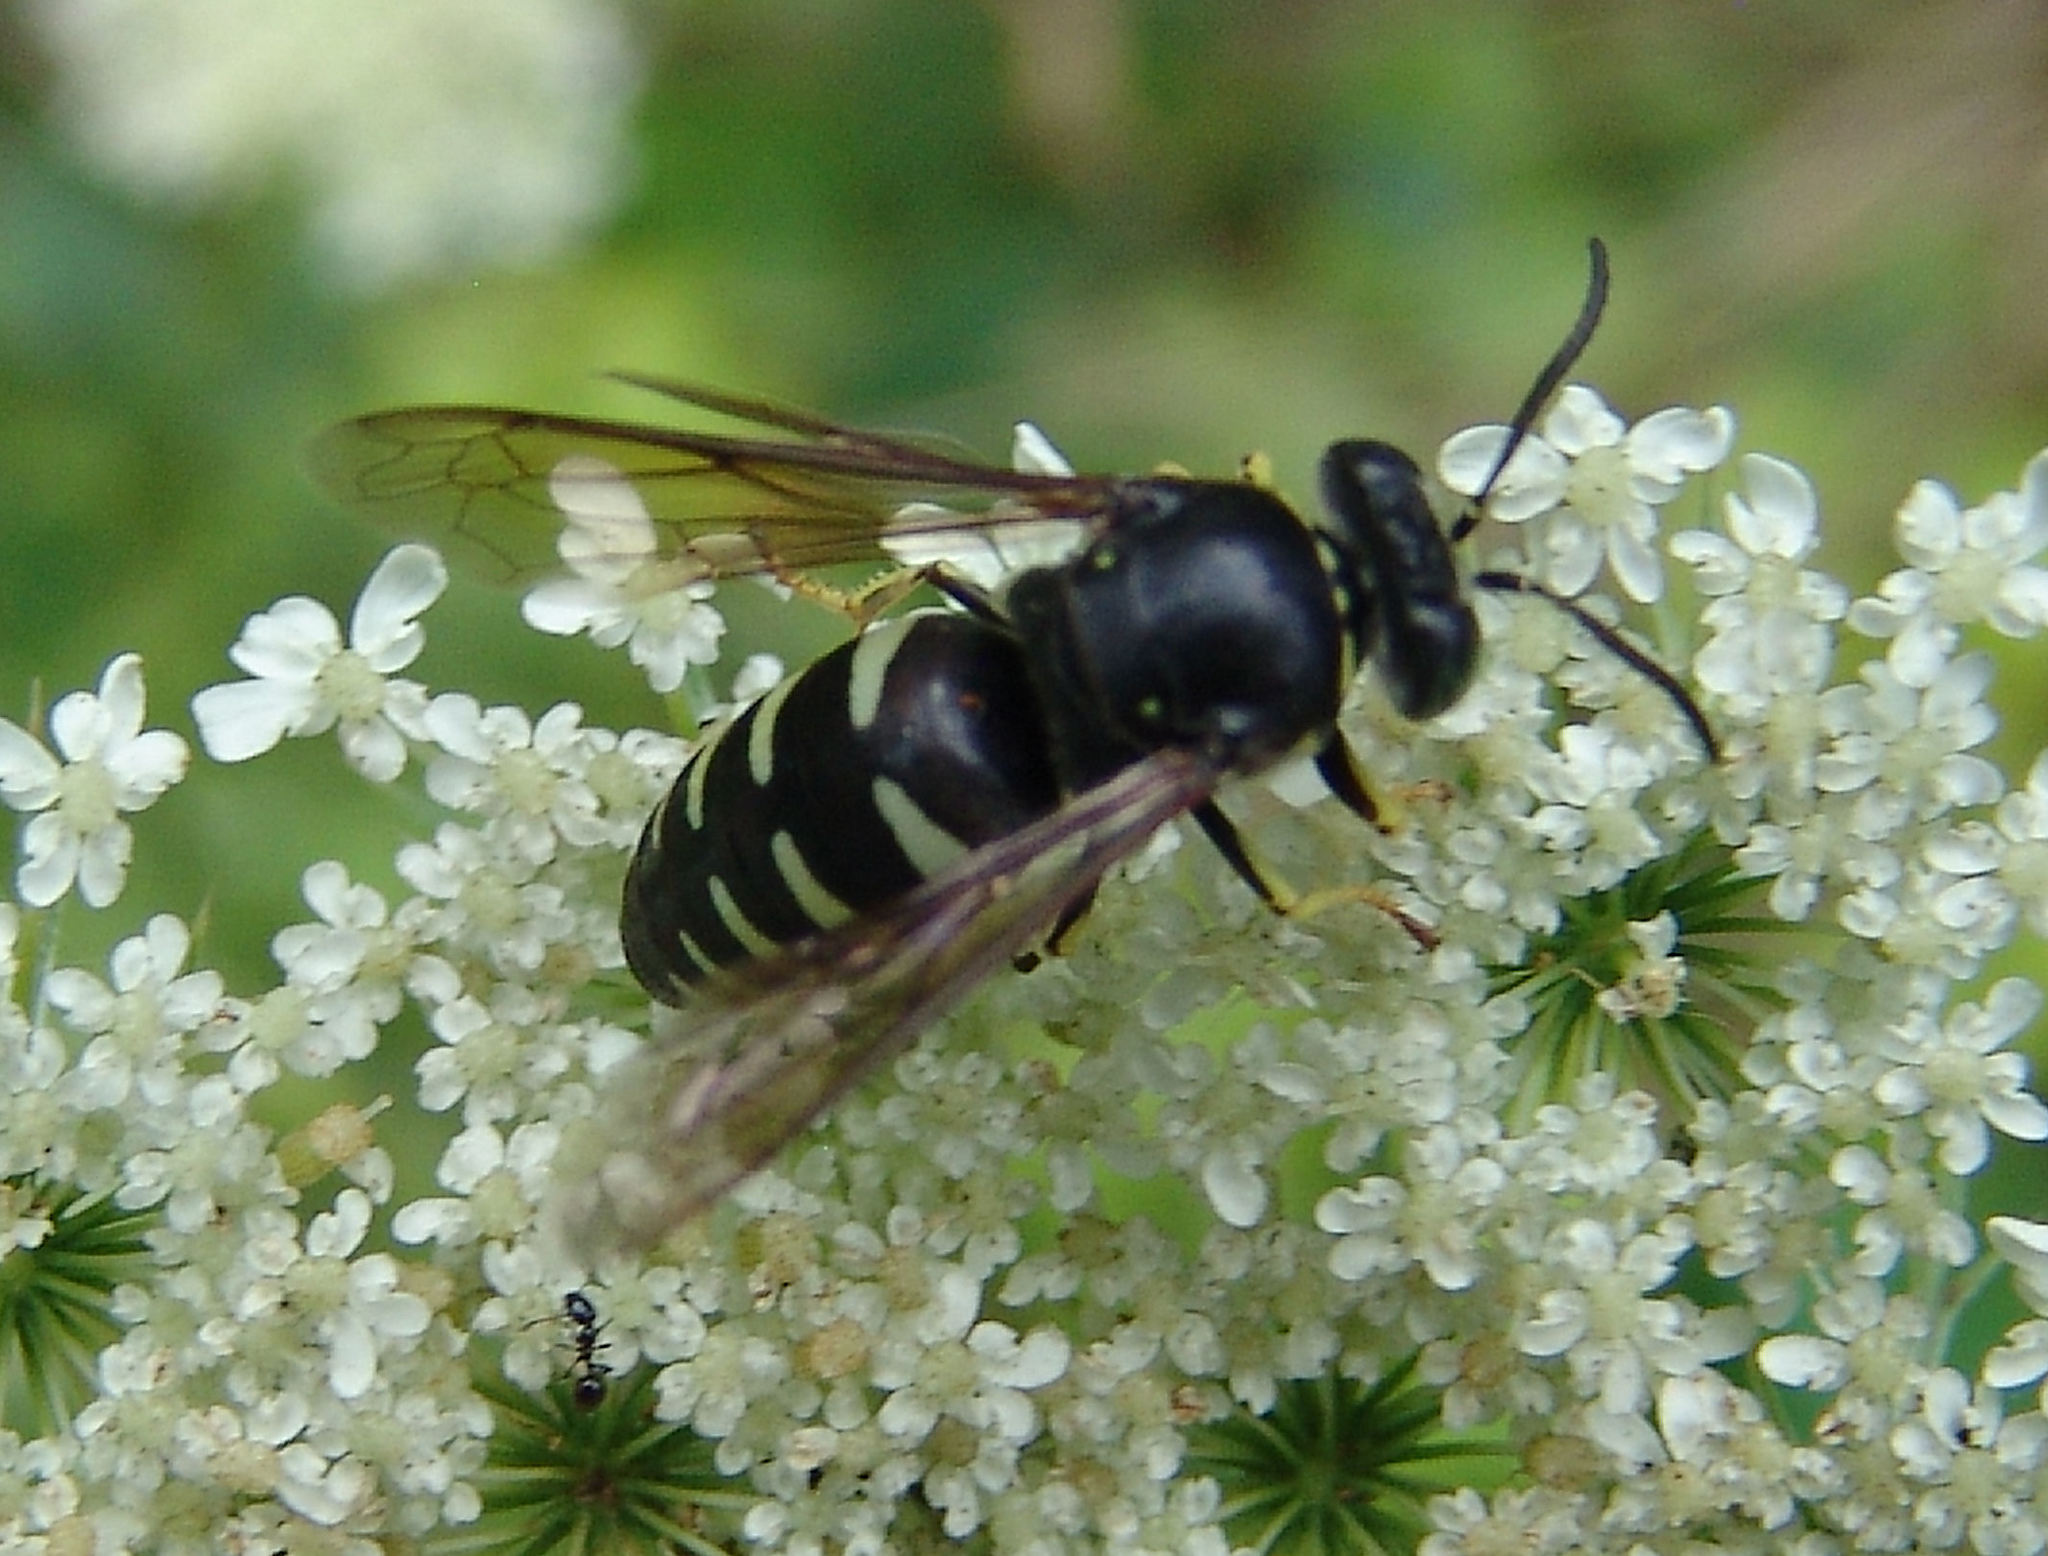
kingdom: Animalia
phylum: Arthropoda
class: Insecta
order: Hymenoptera
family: Crabronidae
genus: Bicyrtes
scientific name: Bicyrtes quadrifasciatus
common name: Four-banded stink bug hunter wasp
